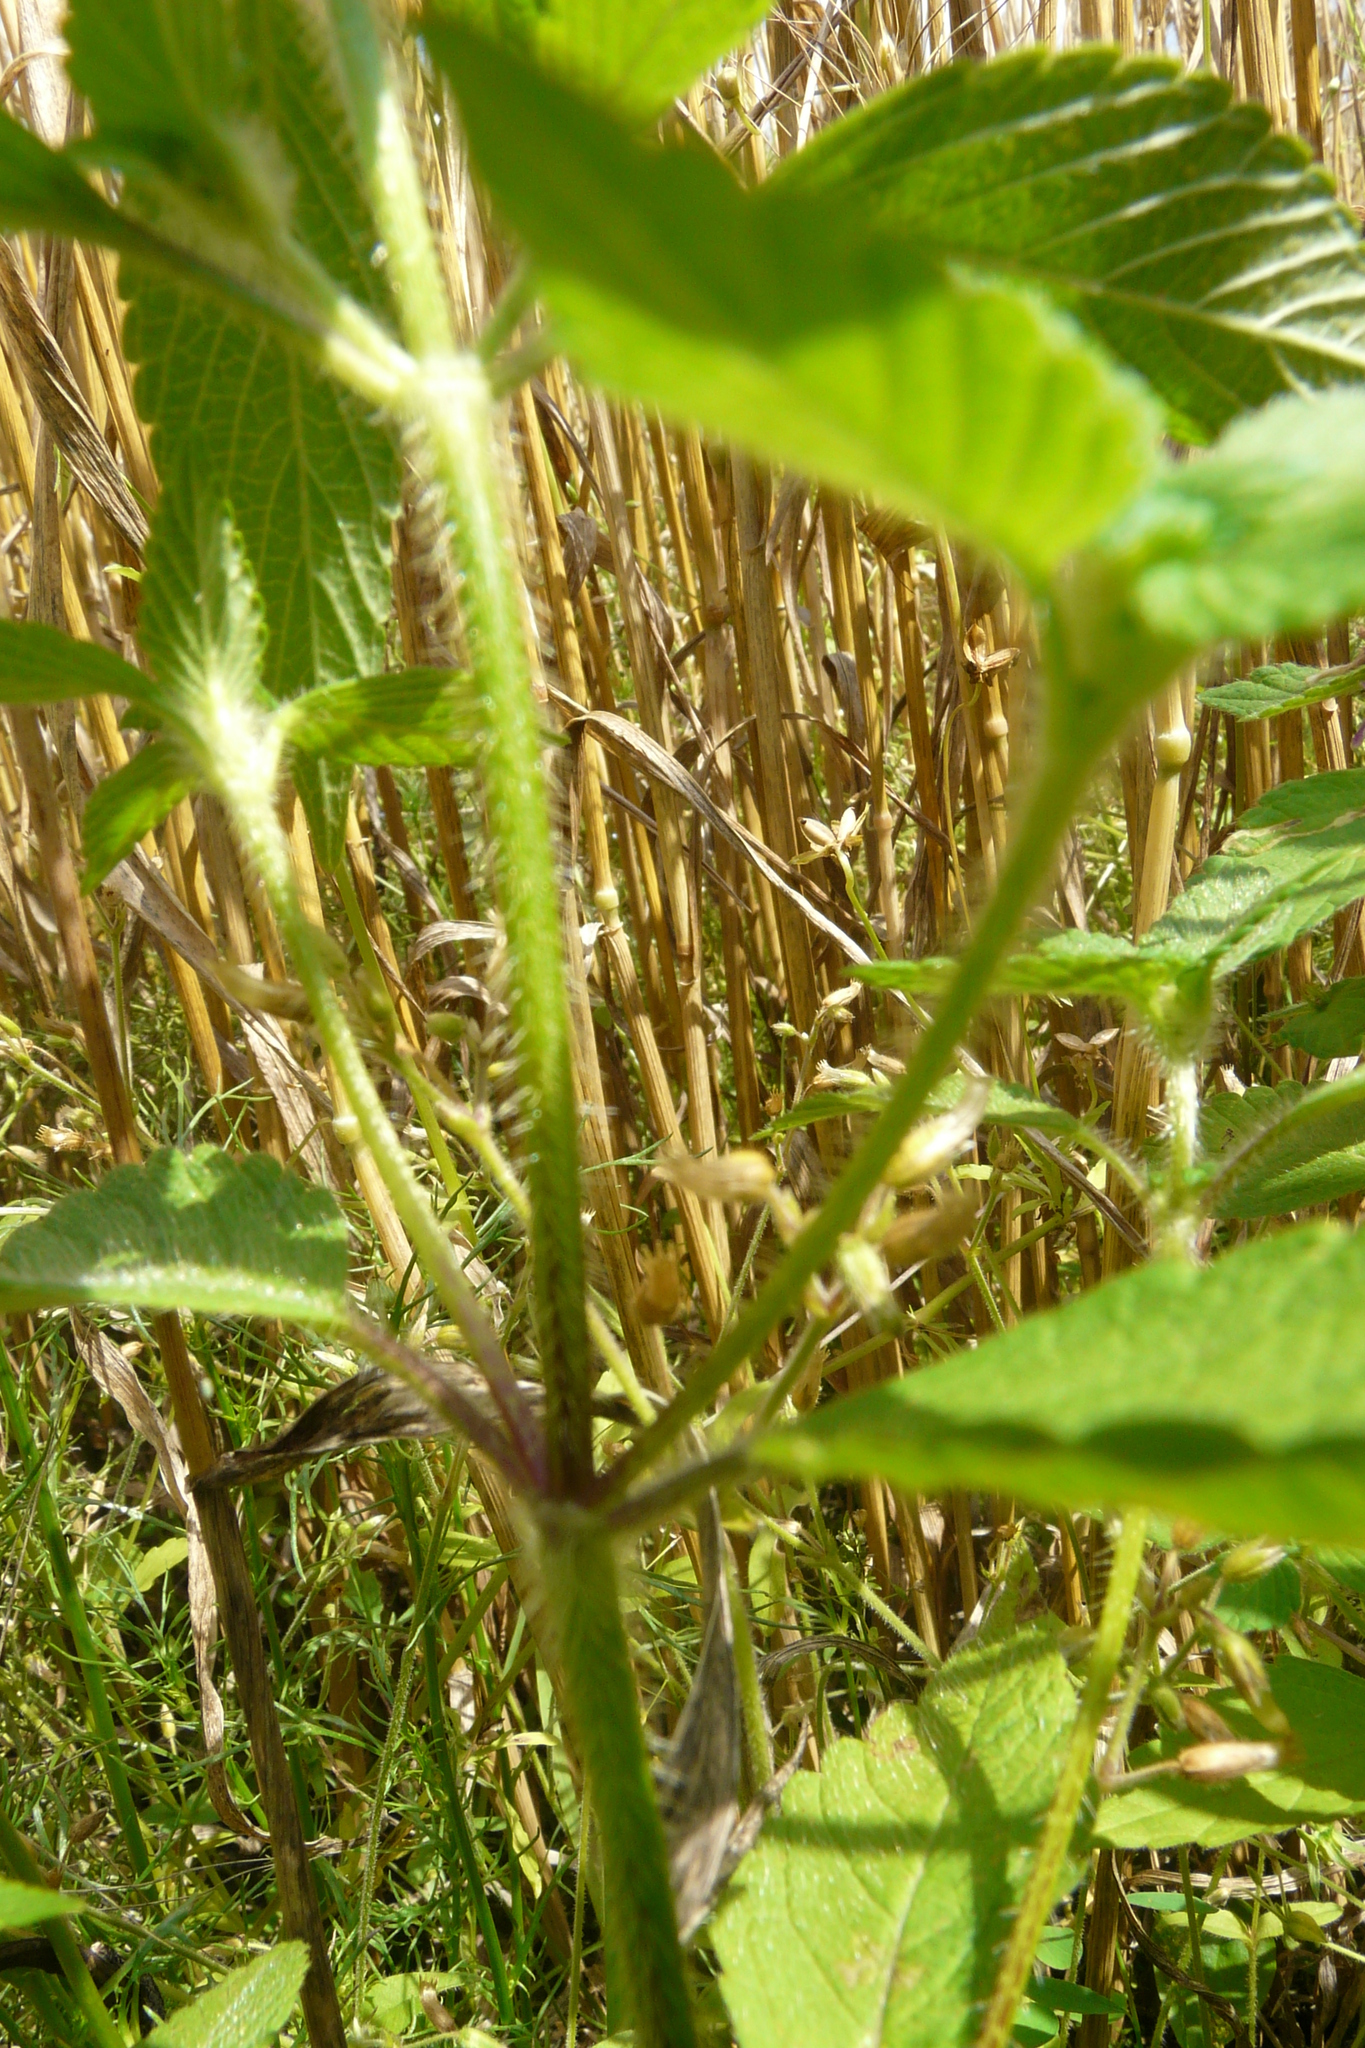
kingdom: Plantae
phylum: Tracheophyta
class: Magnoliopsida
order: Lamiales
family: Lamiaceae
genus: Galeopsis
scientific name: Galeopsis bifida
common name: Bifid hemp-nettle
